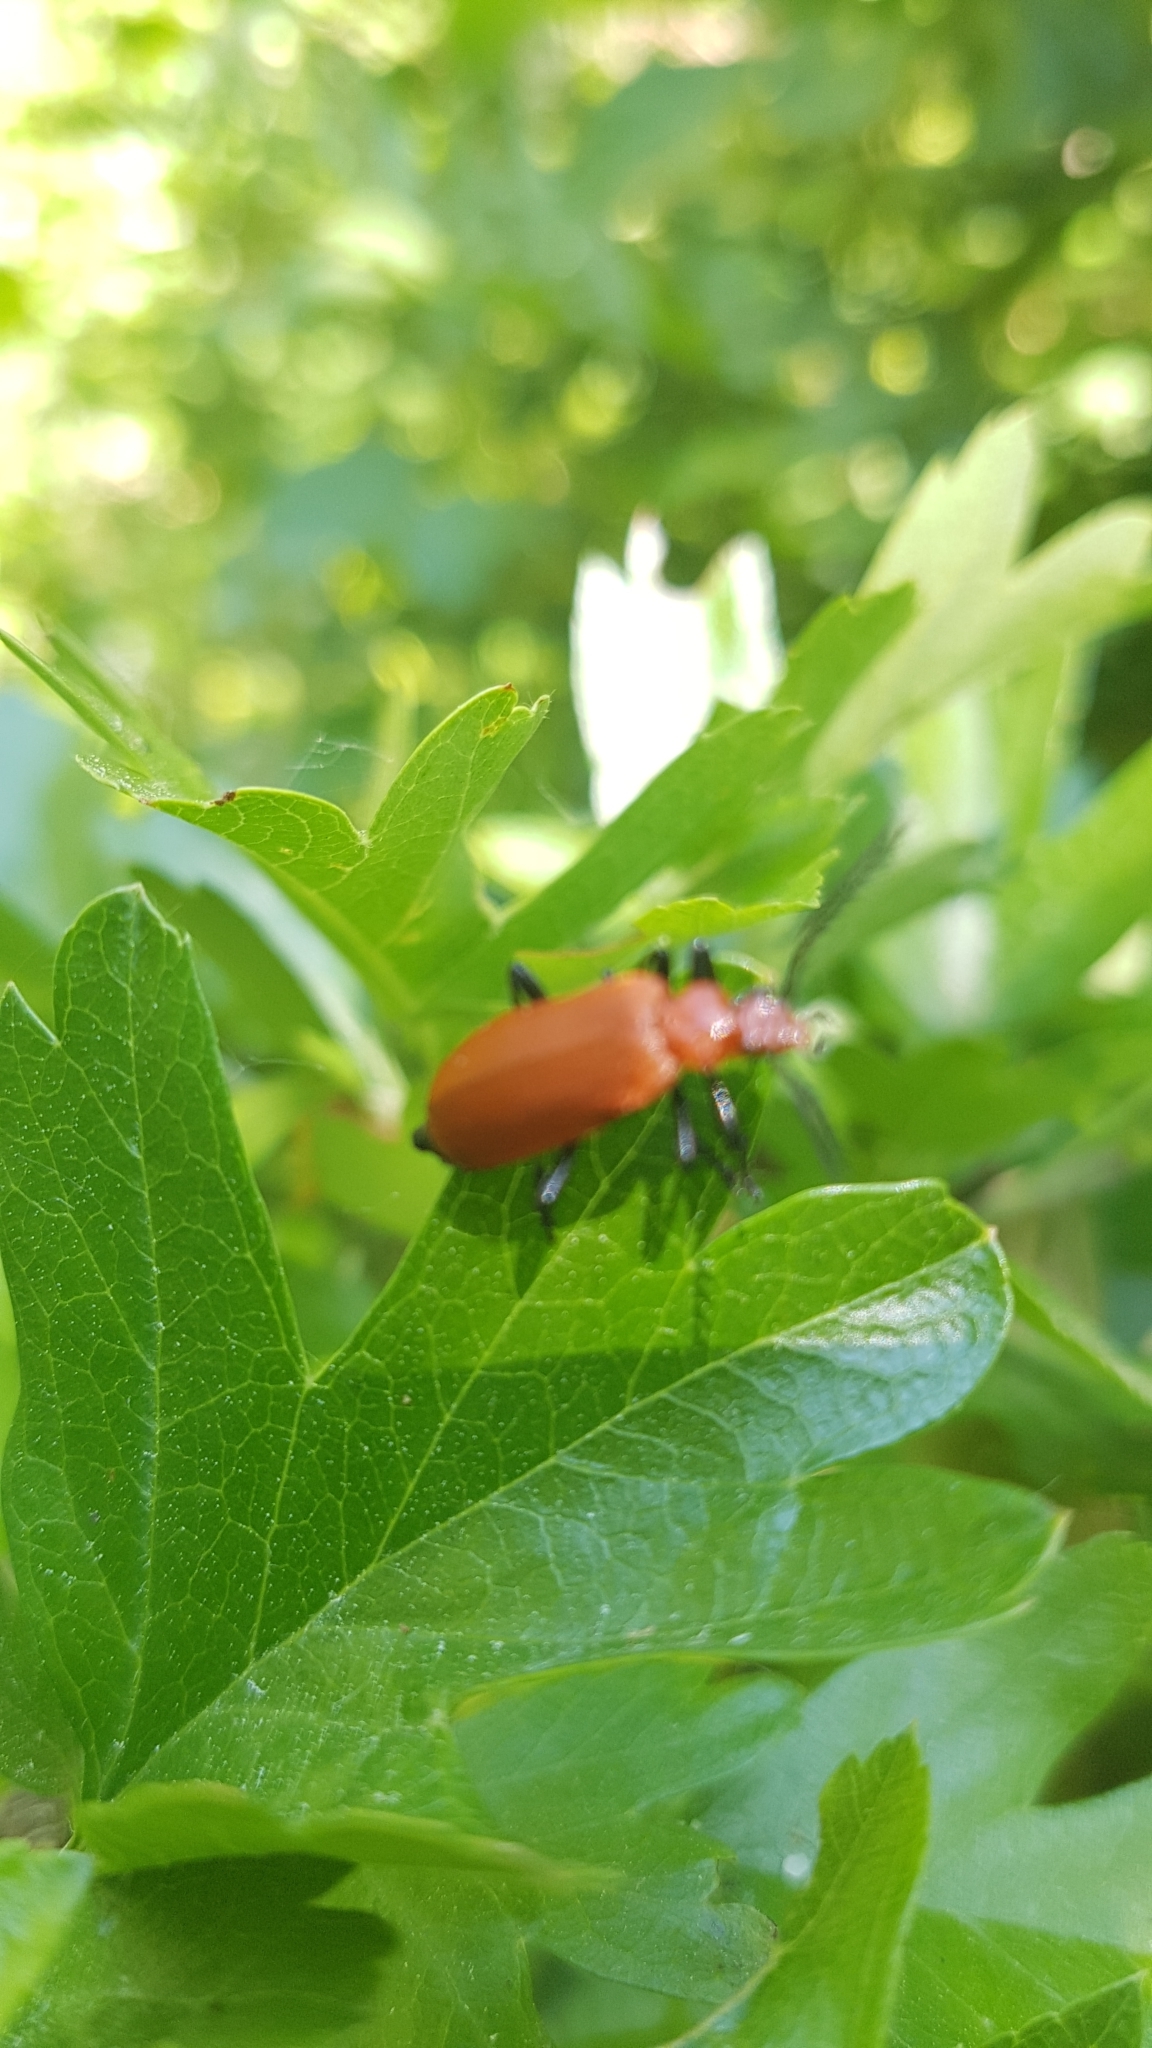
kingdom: Animalia
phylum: Arthropoda
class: Insecta
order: Coleoptera
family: Pyrochroidae
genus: Pyrochroa
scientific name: Pyrochroa serraticornis
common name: Red-headed cardinal beetle
